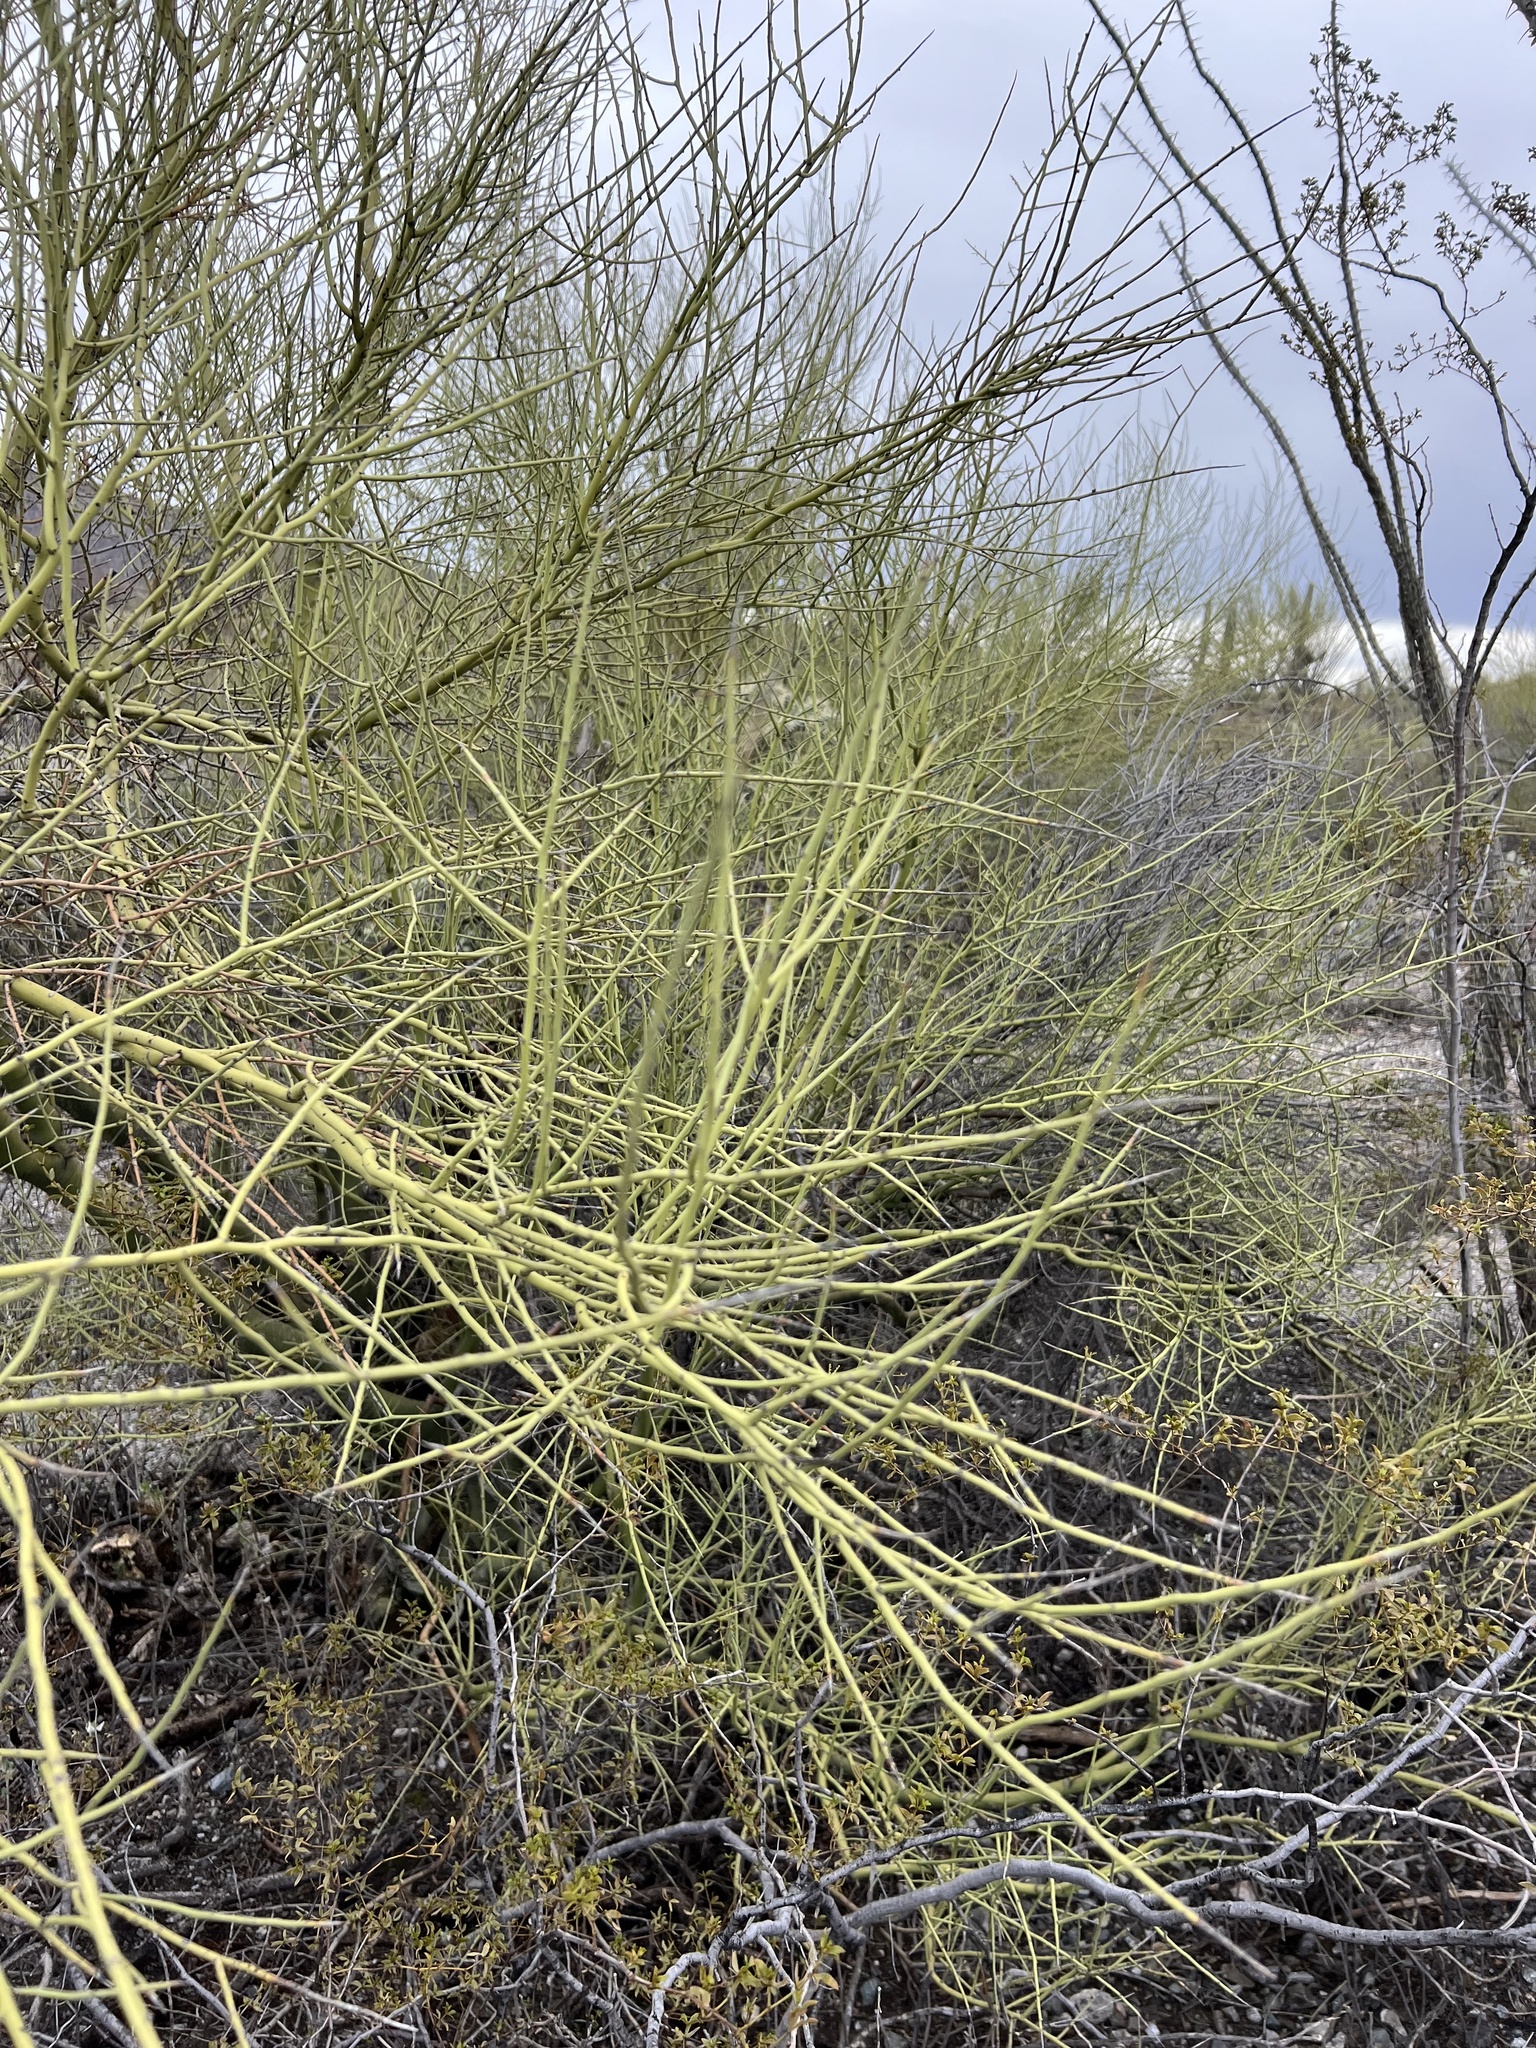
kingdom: Plantae
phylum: Tracheophyta
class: Magnoliopsida
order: Fabales
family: Fabaceae
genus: Parkinsonia
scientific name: Parkinsonia microphylla
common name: Yellow paloverde
